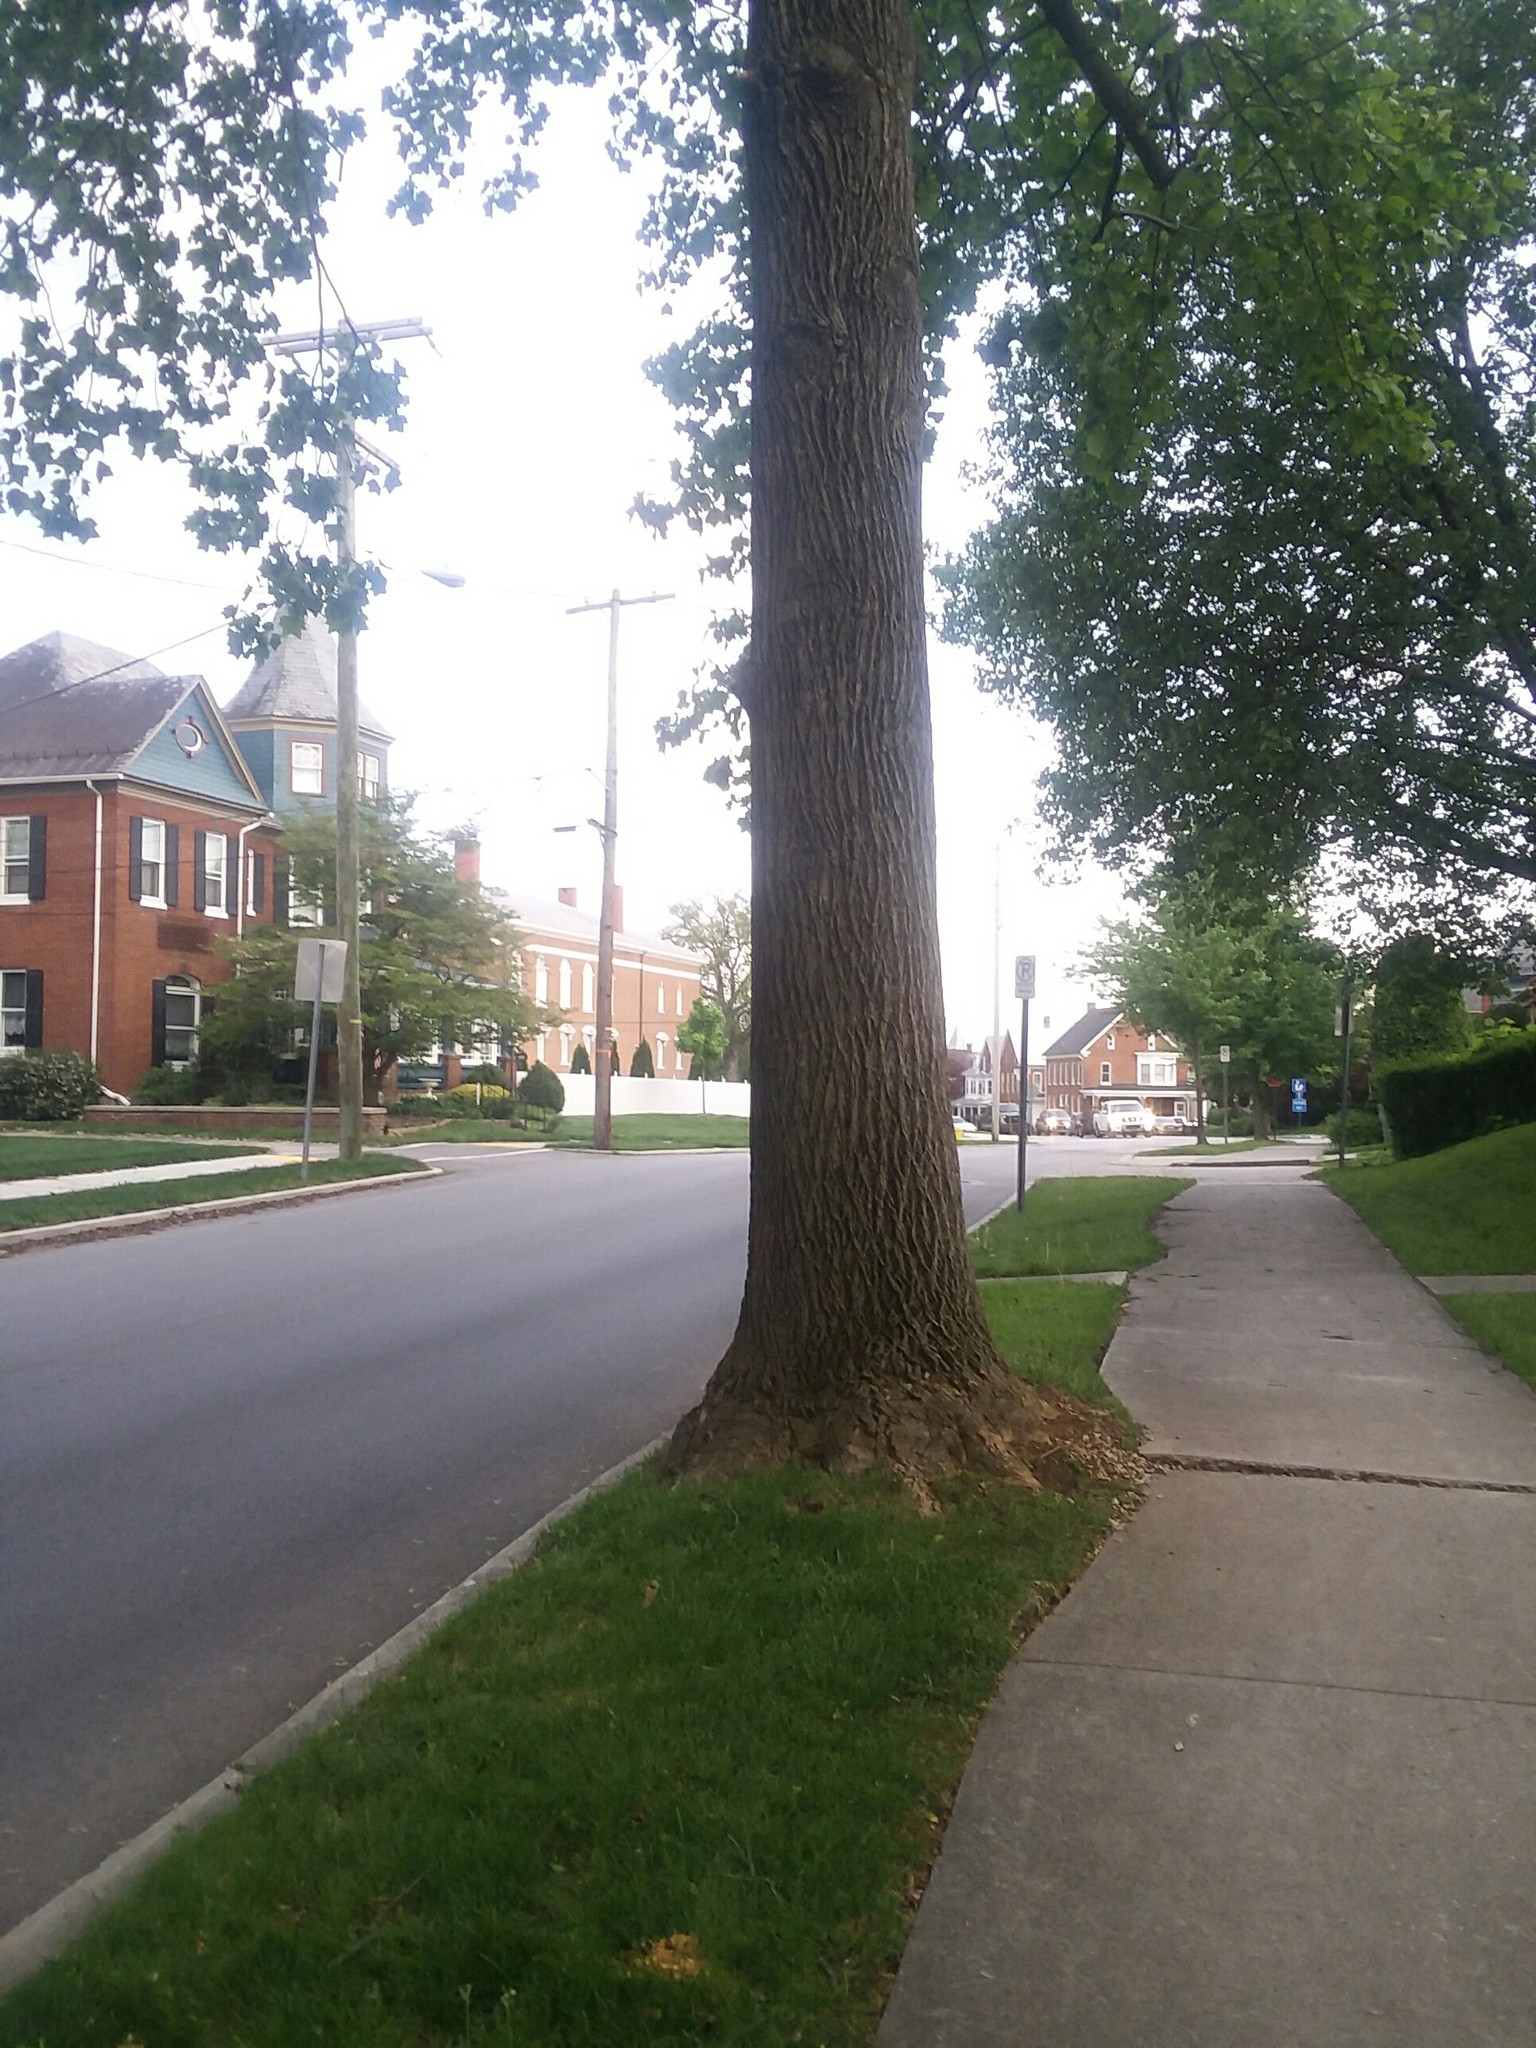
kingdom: Plantae
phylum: Tracheophyta
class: Magnoliopsida
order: Magnoliales
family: Magnoliaceae
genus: Liriodendron
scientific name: Liriodendron tulipifera
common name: Tulip tree
